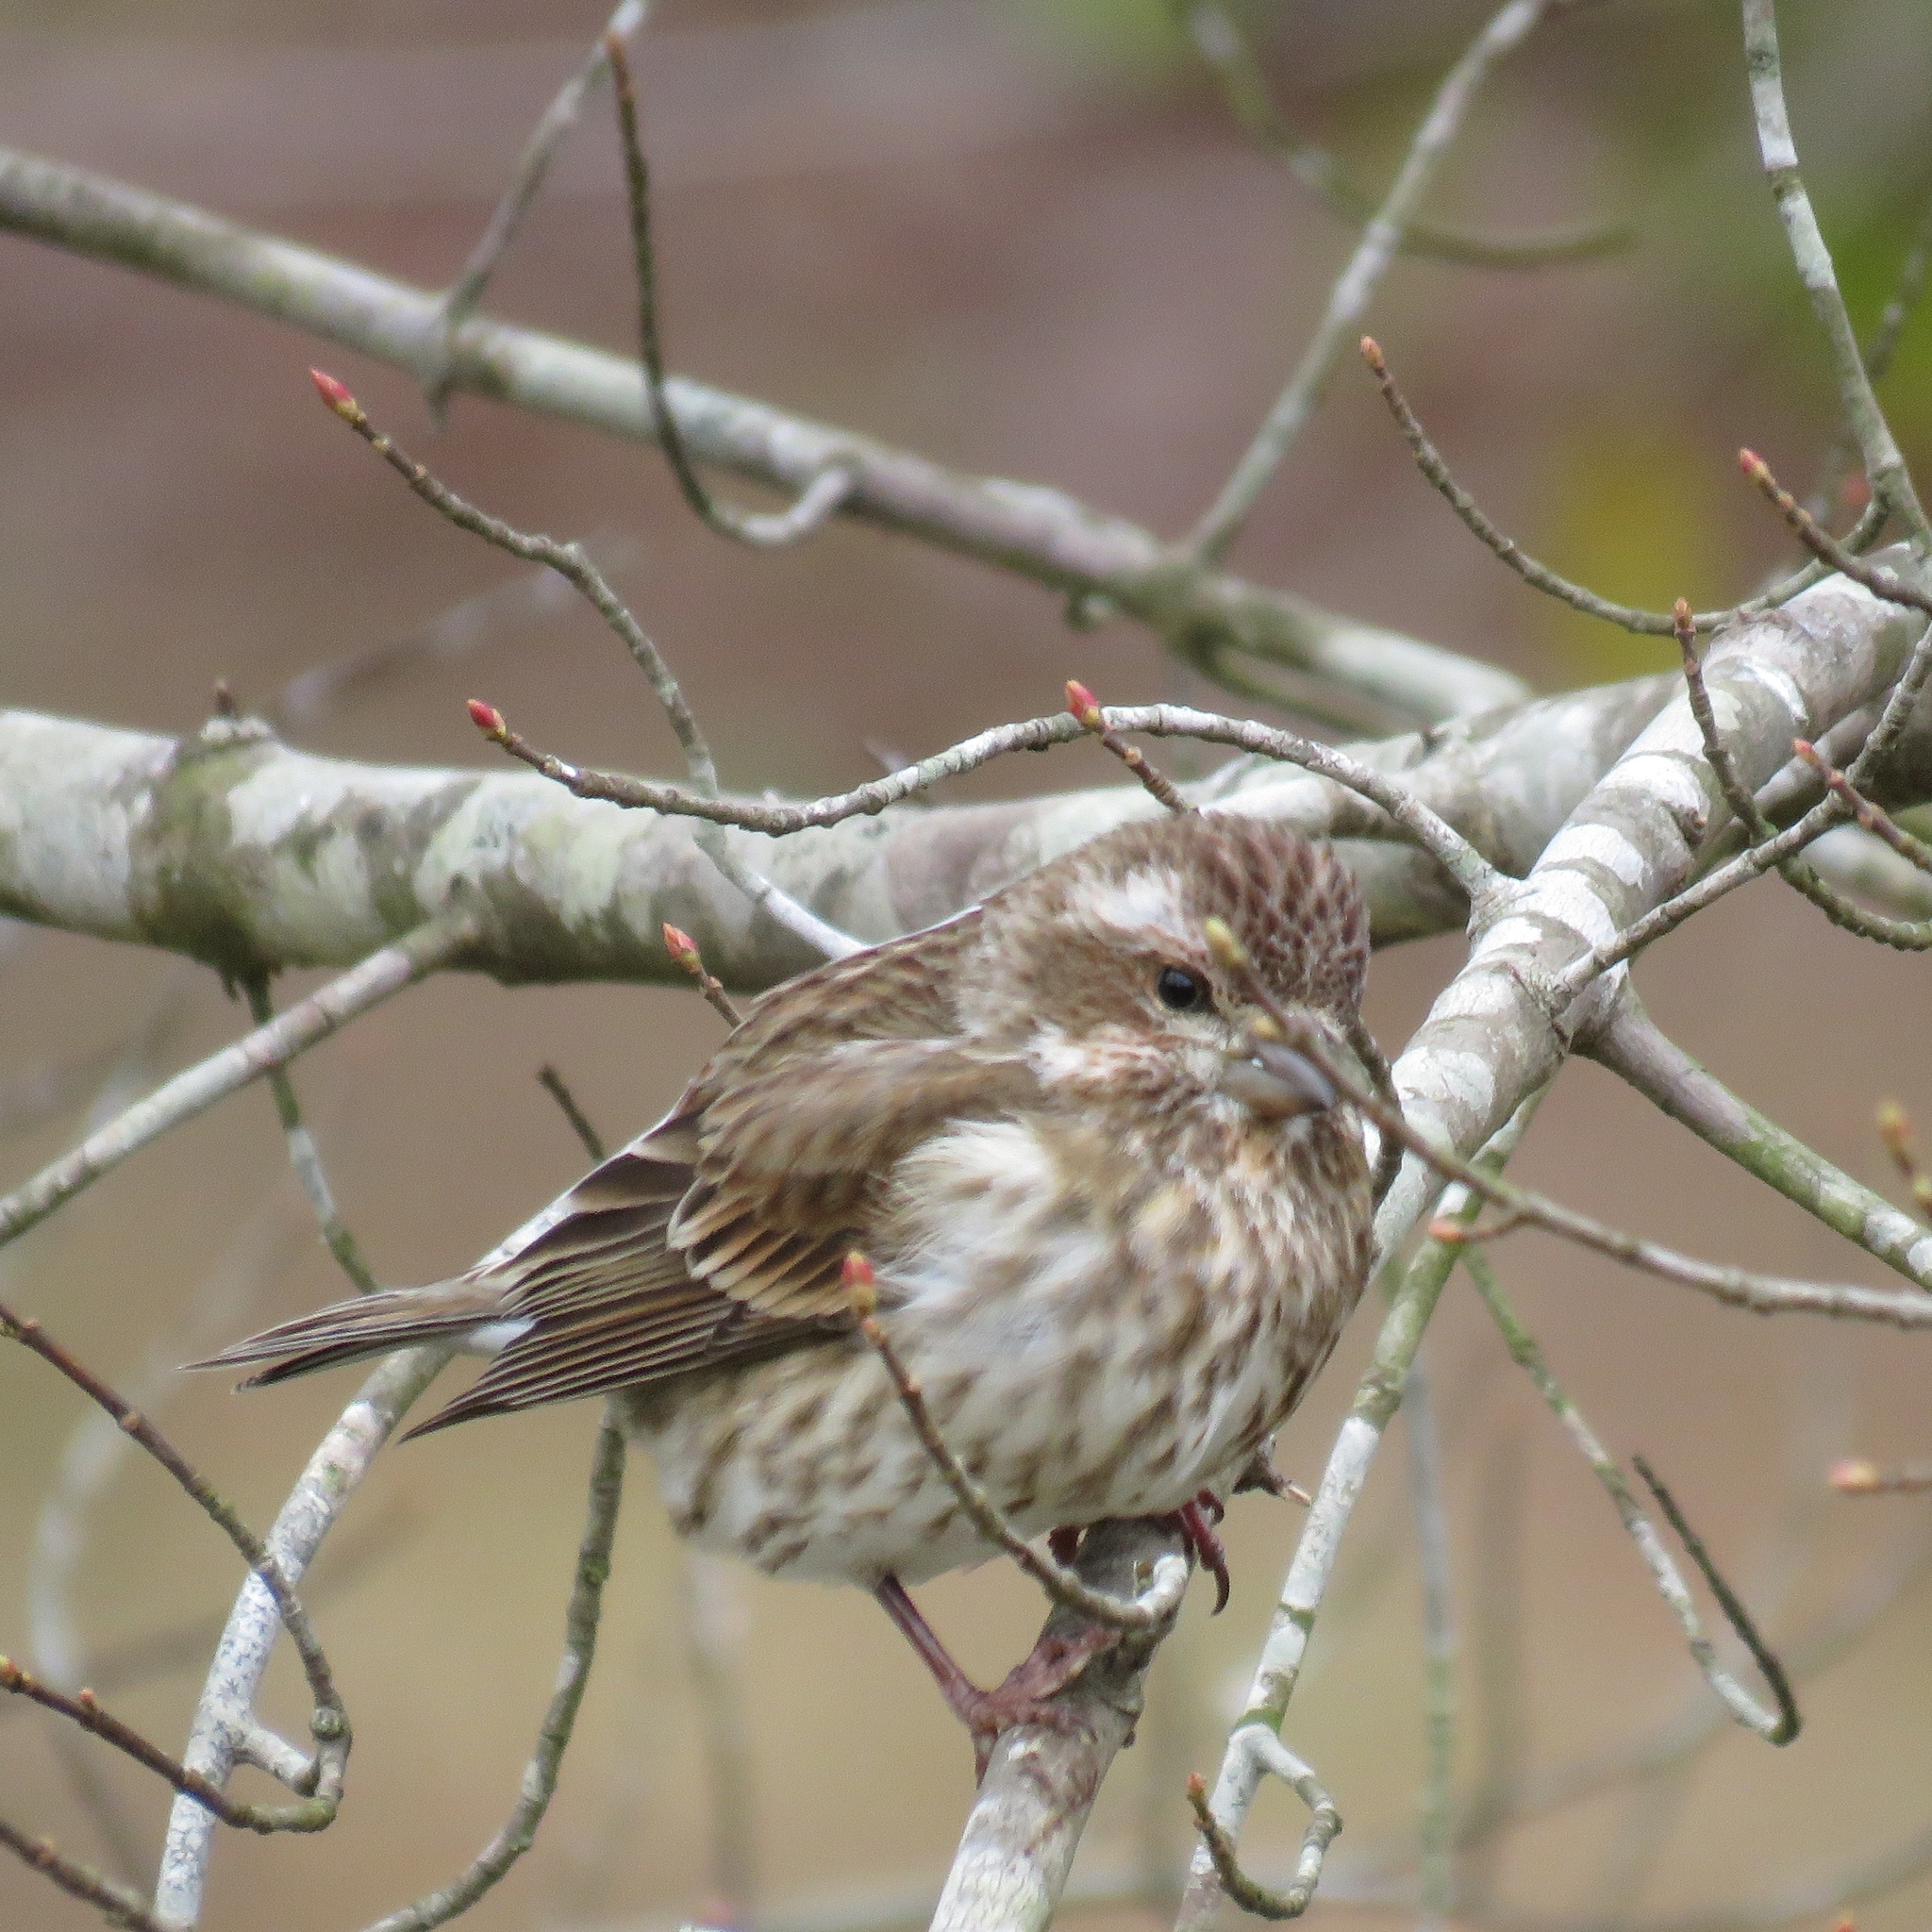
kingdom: Animalia
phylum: Chordata
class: Aves
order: Passeriformes
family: Fringillidae
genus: Haemorhous
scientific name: Haemorhous purpureus
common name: Purple finch
